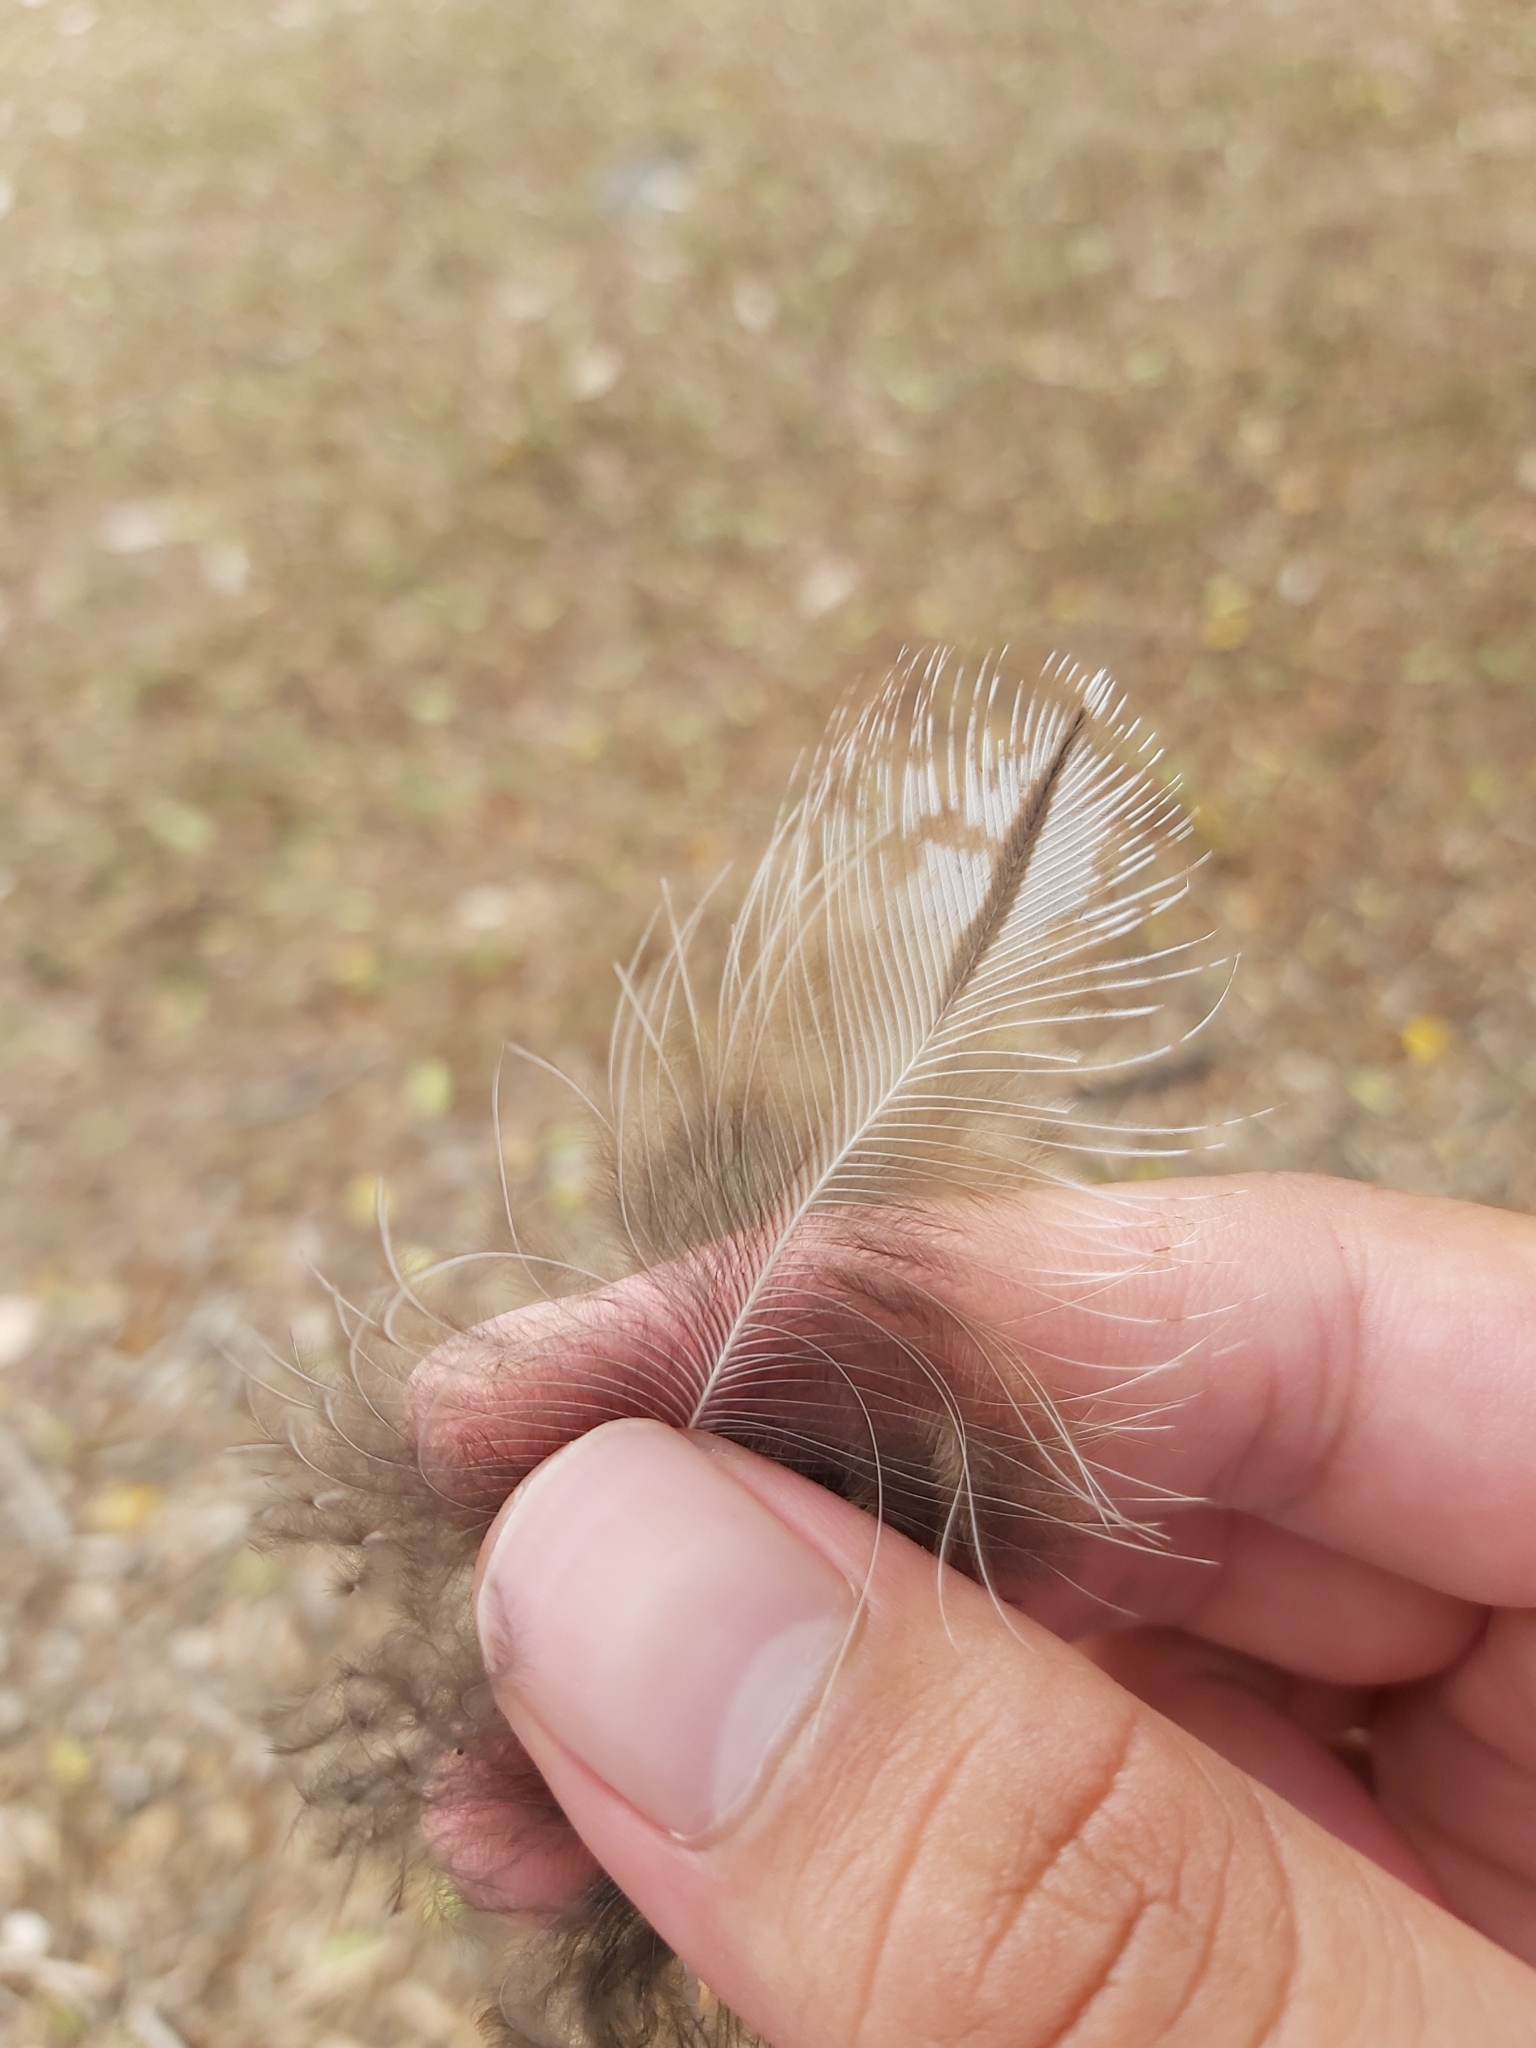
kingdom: Animalia
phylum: Chordata
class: Aves
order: Caprimulgiformes
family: Podargidae
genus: Podargus
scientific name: Podargus strigoides
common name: Tawny frogmouth
